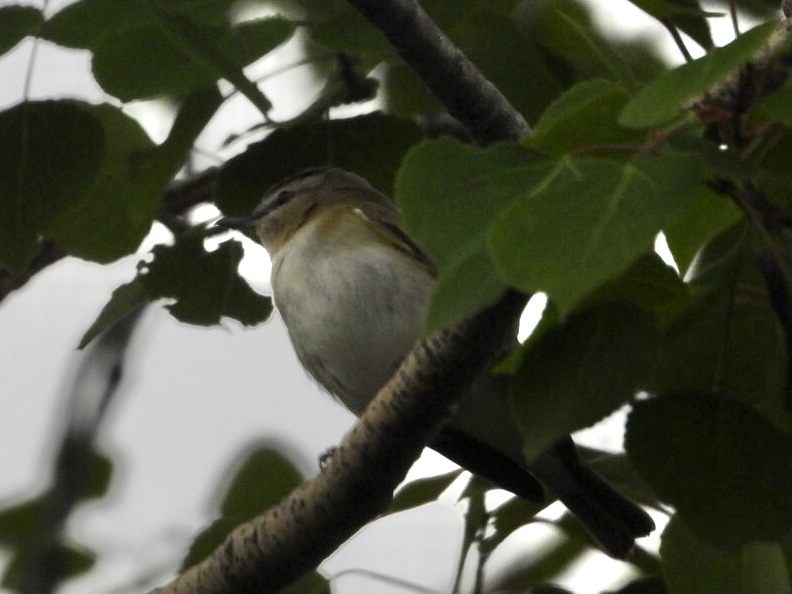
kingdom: Animalia
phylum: Chordata
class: Aves
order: Passeriformes
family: Vireonidae
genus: Vireo
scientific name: Vireo olivaceus
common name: Red-eyed vireo
